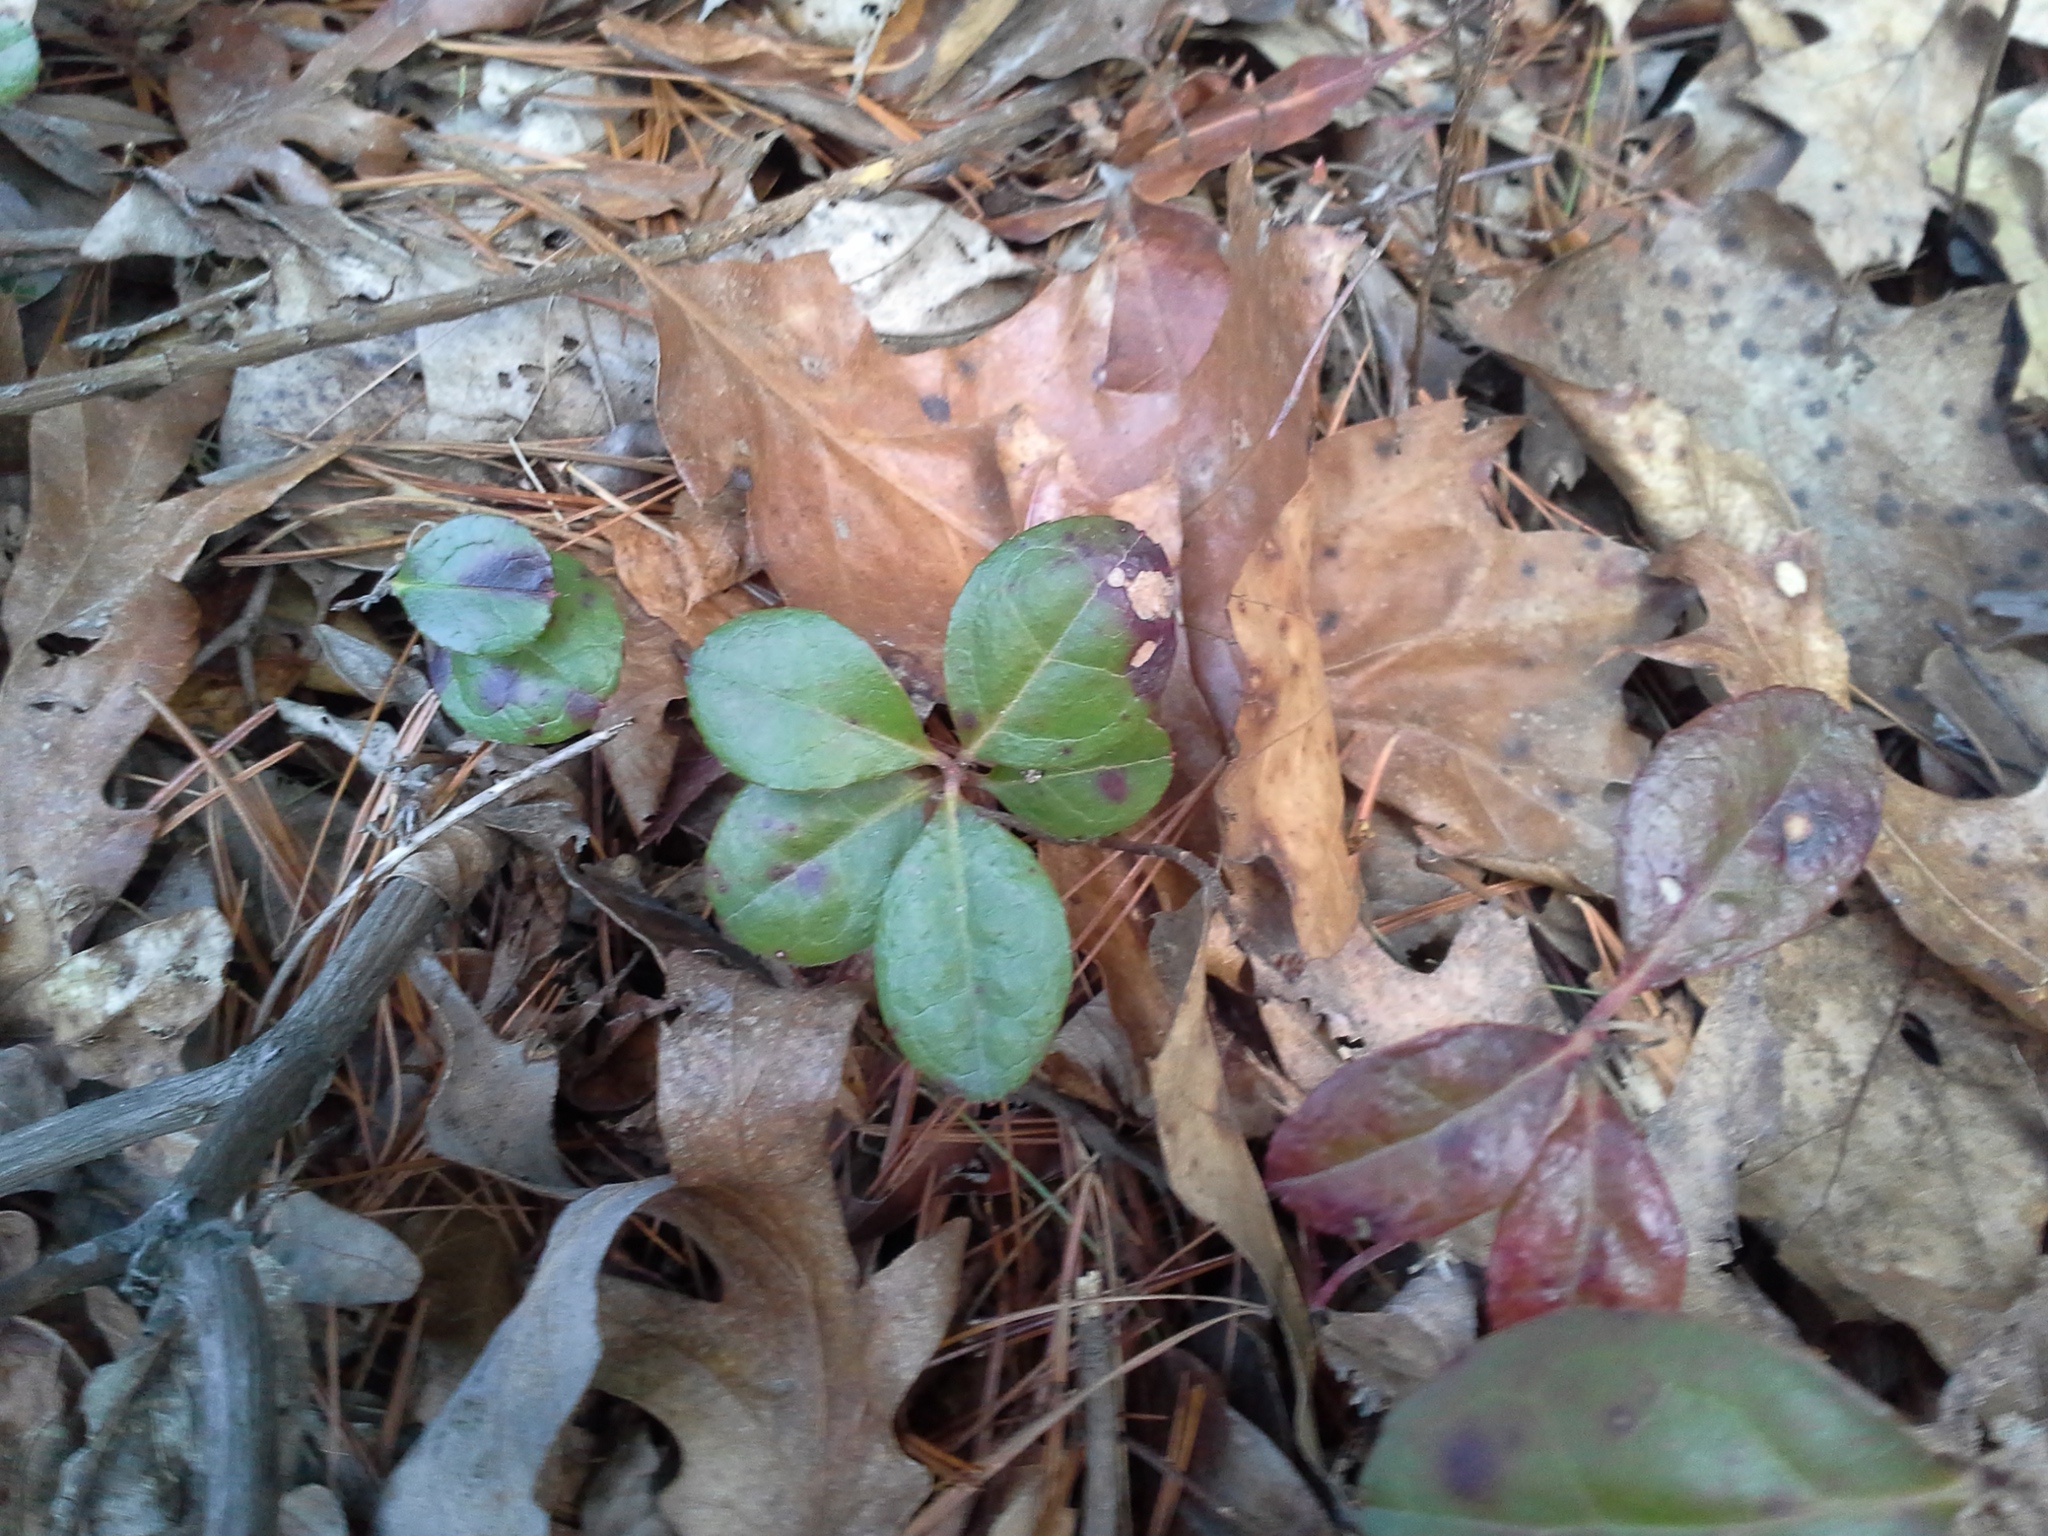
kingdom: Plantae
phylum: Tracheophyta
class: Magnoliopsida
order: Ericales
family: Ericaceae
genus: Gaultheria
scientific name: Gaultheria procumbens
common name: Checkerberry
